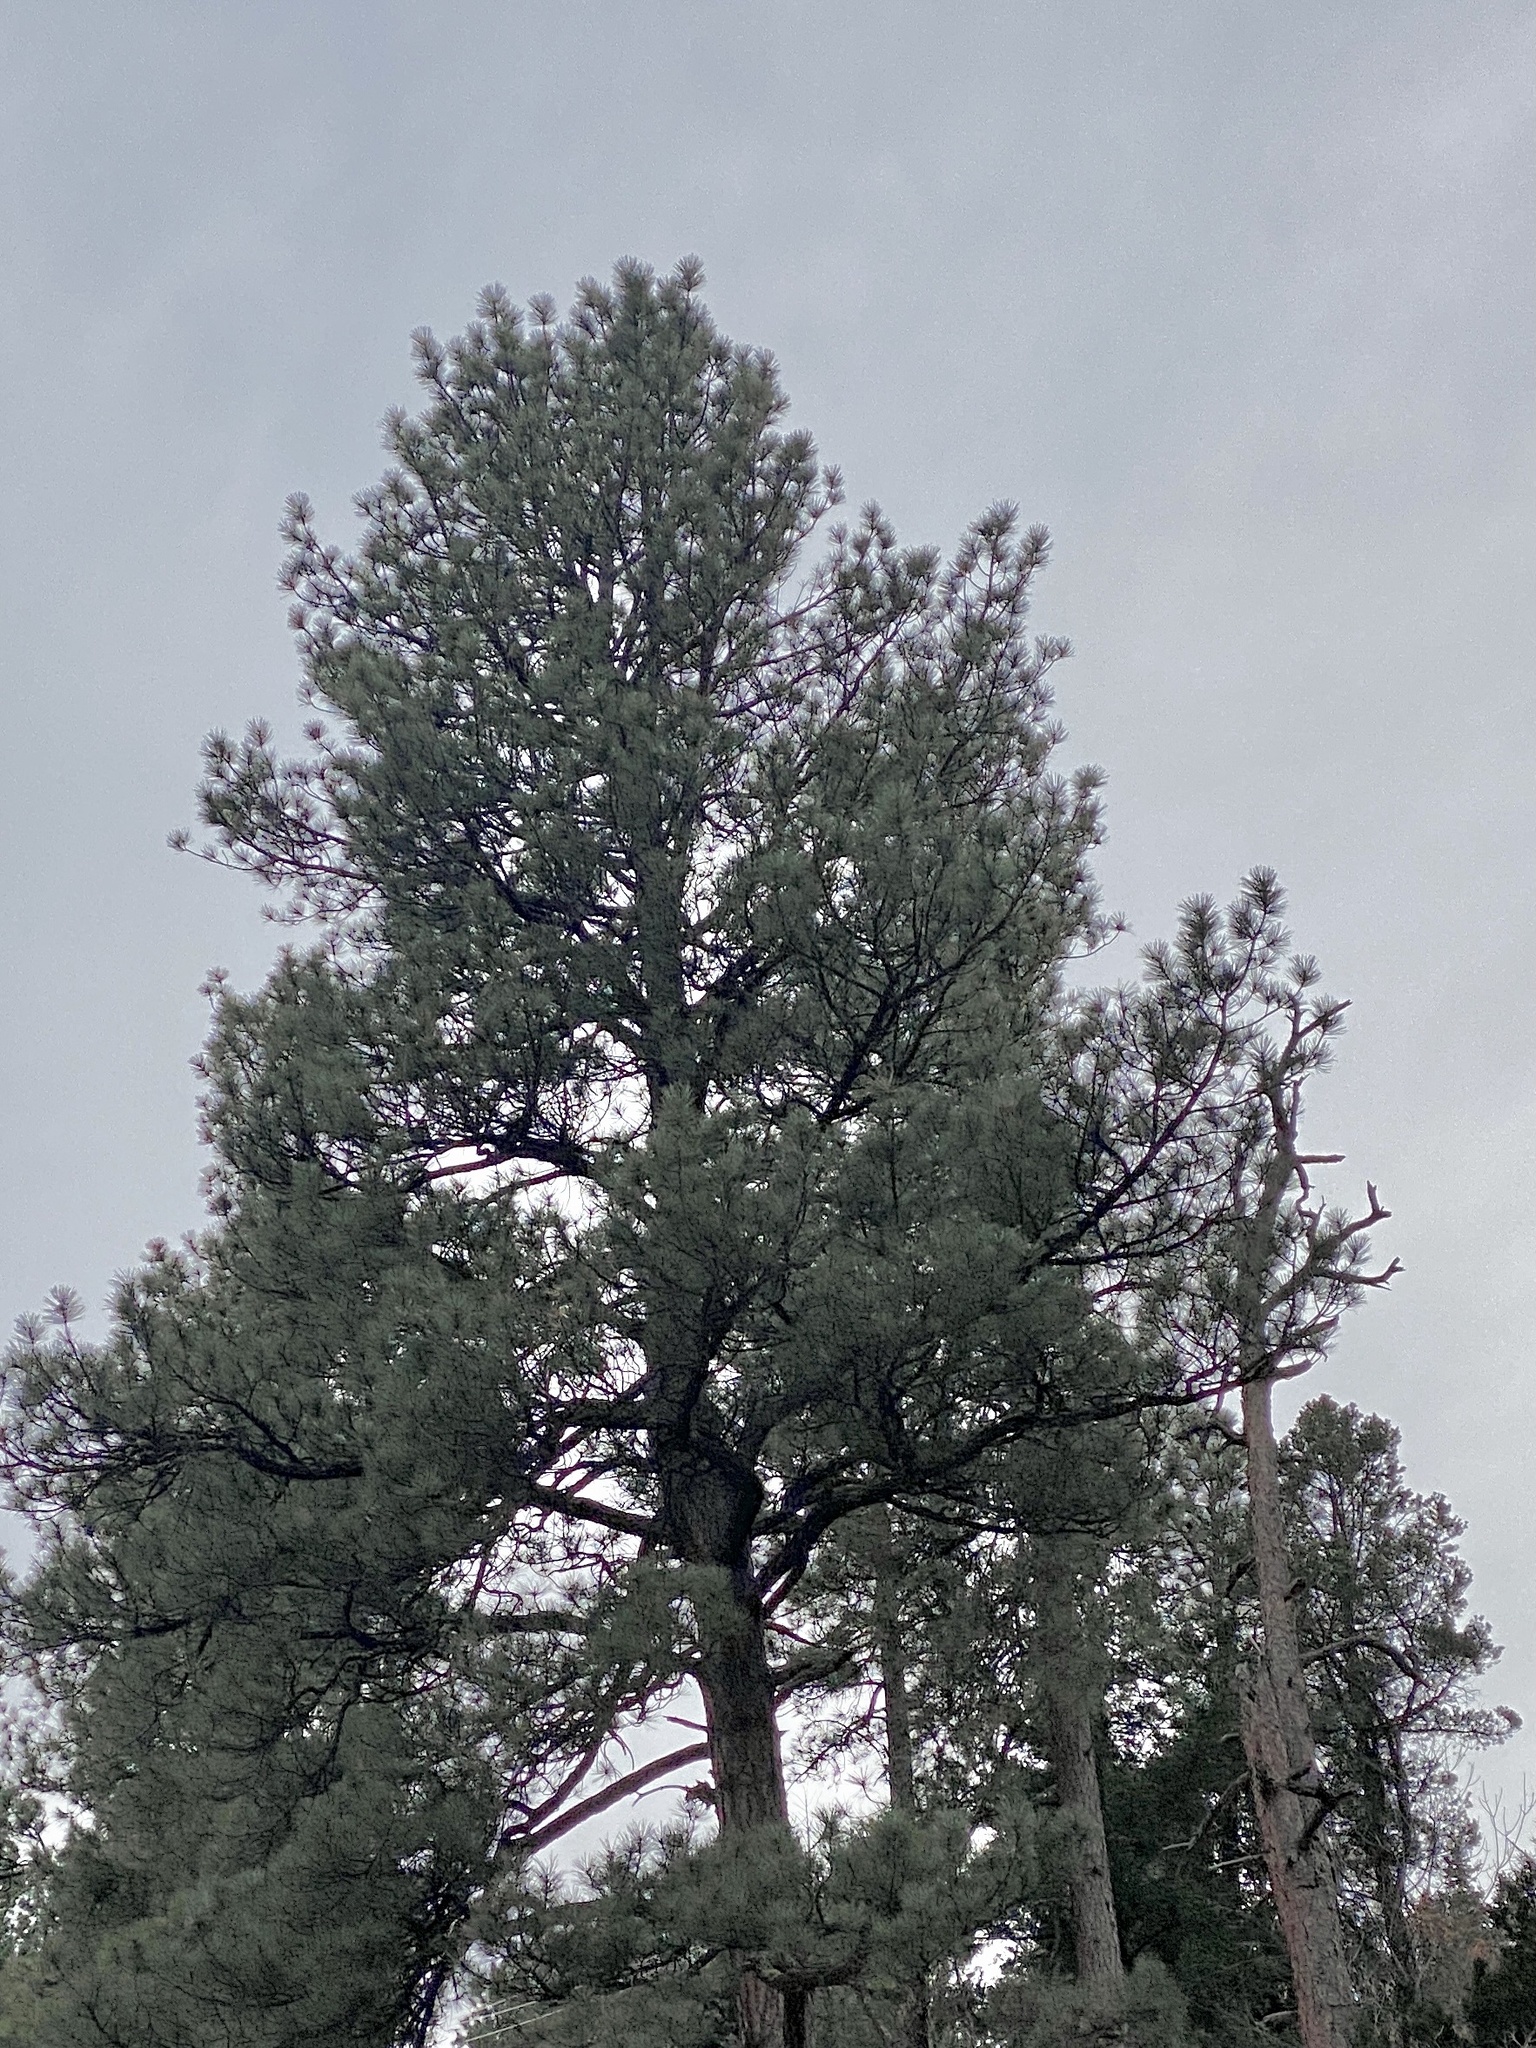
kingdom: Plantae
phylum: Tracheophyta
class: Pinopsida
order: Pinales
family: Pinaceae
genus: Pinus
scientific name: Pinus ponderosa
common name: Western yellow-pine
